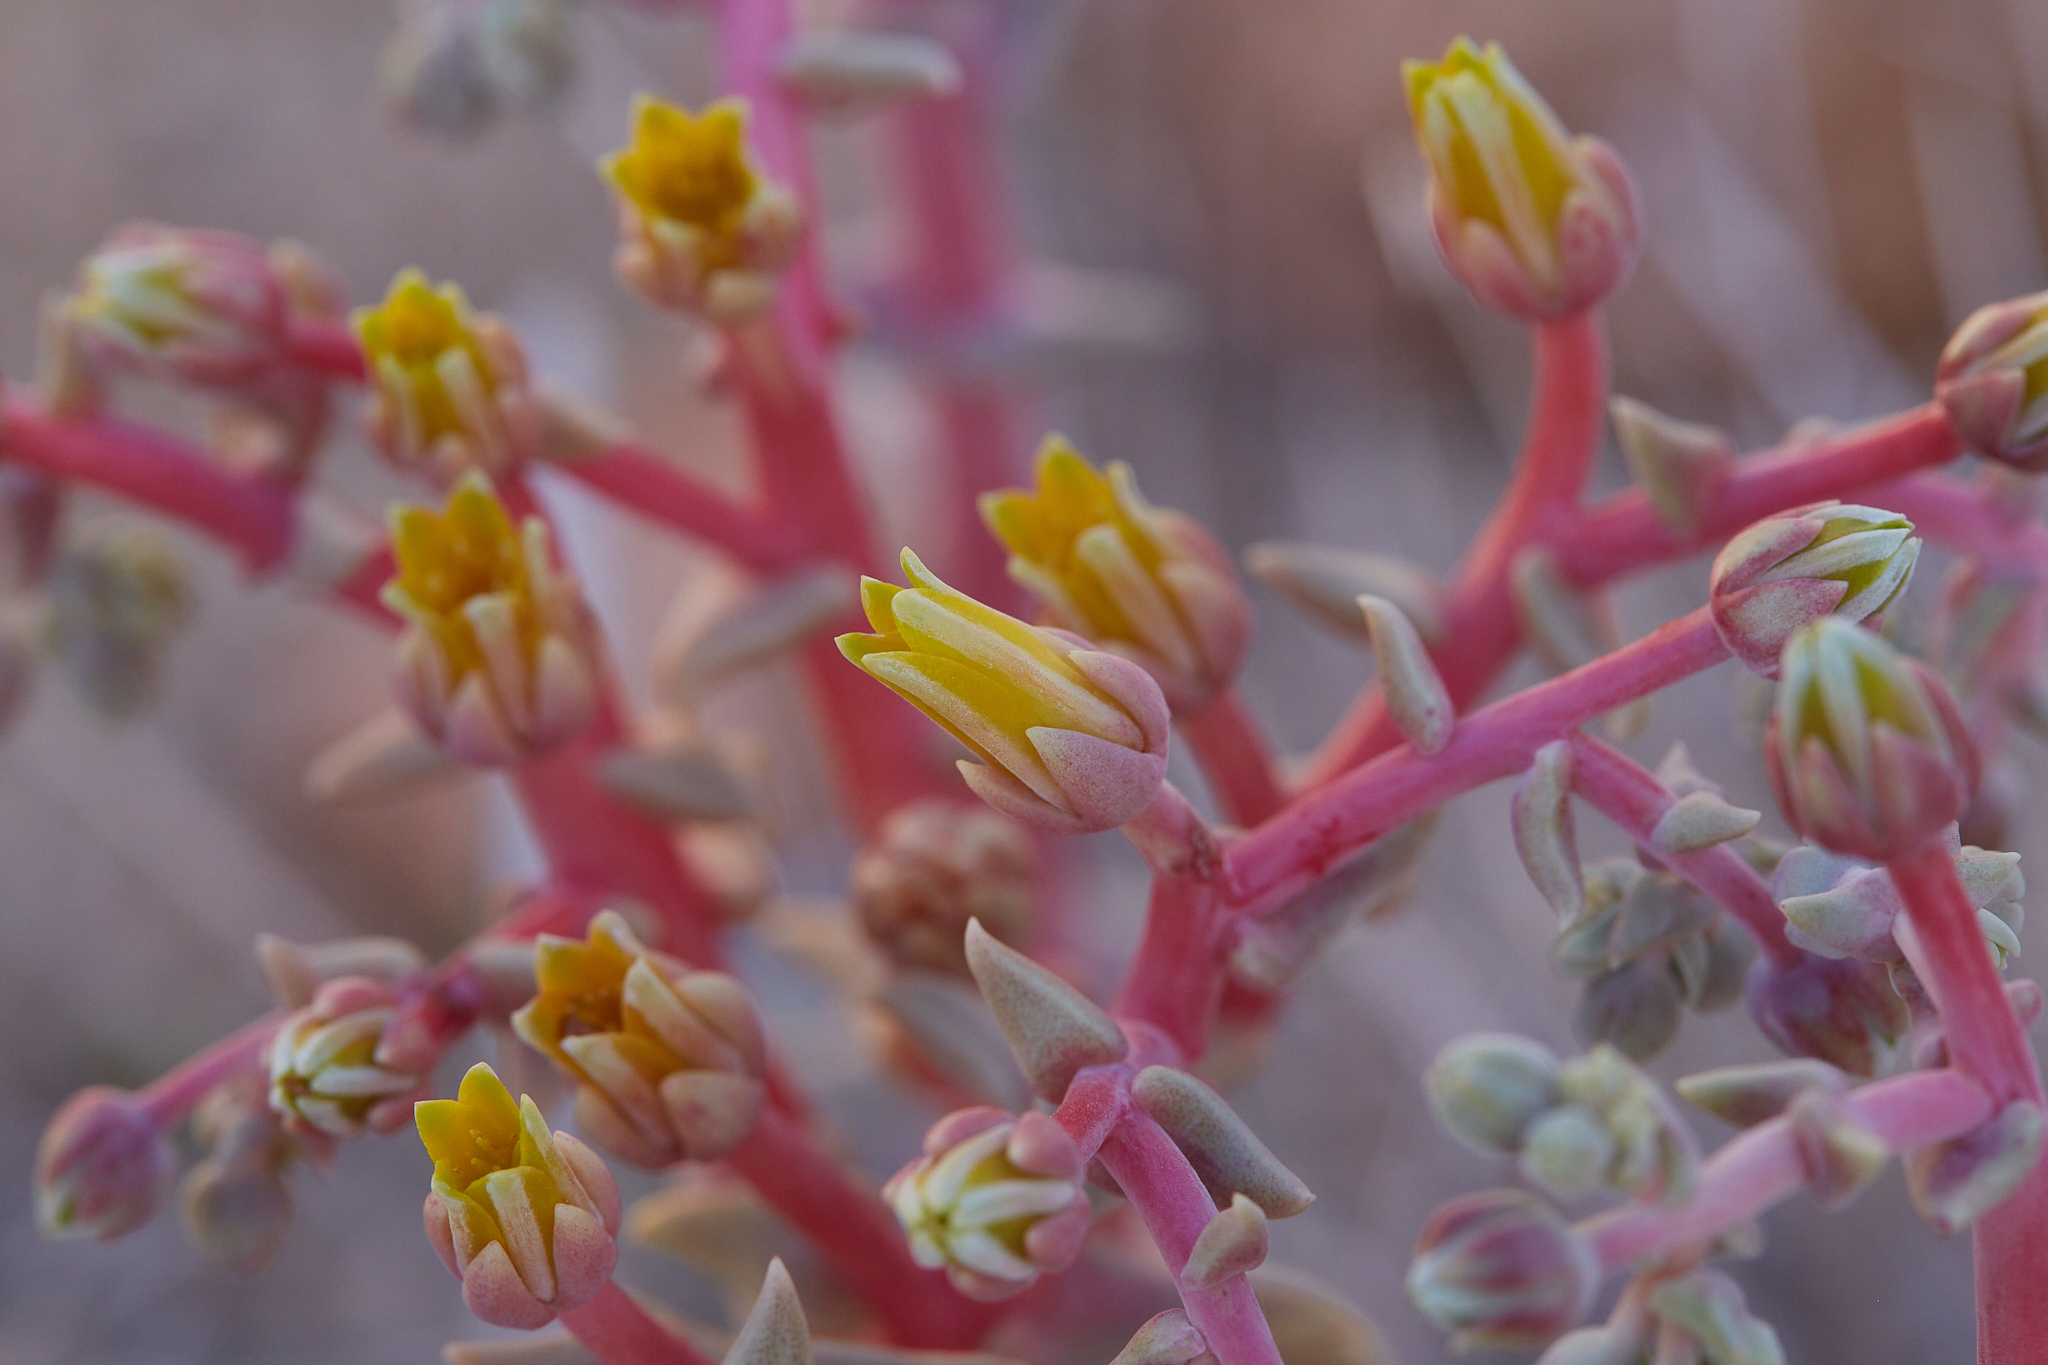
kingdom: Plantae
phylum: Tracheophyta
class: Magnoliopsida
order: Saxifragales
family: Crassulaceae
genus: Dudleya
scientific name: Dudleya saxosa
